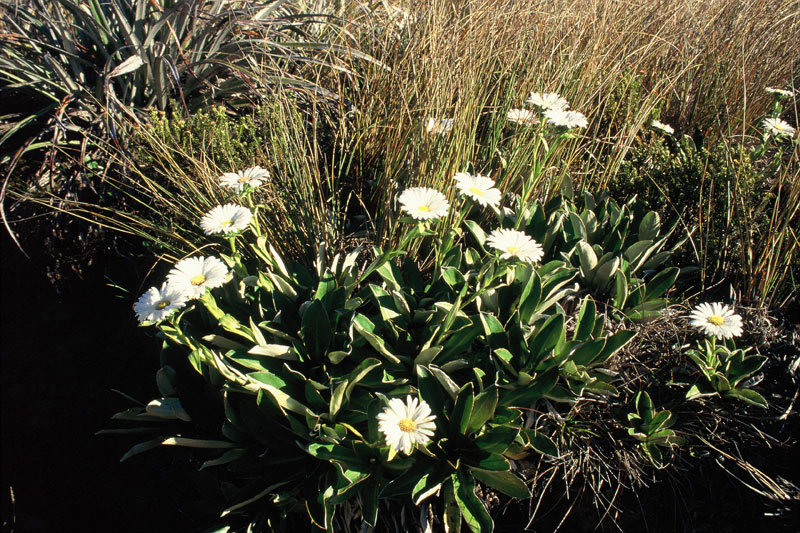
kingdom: Plantae
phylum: Tracheophyta
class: Magnoliopsida
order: Asterales
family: Asteraceae
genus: Celmisia
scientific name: Celmisia dallii
